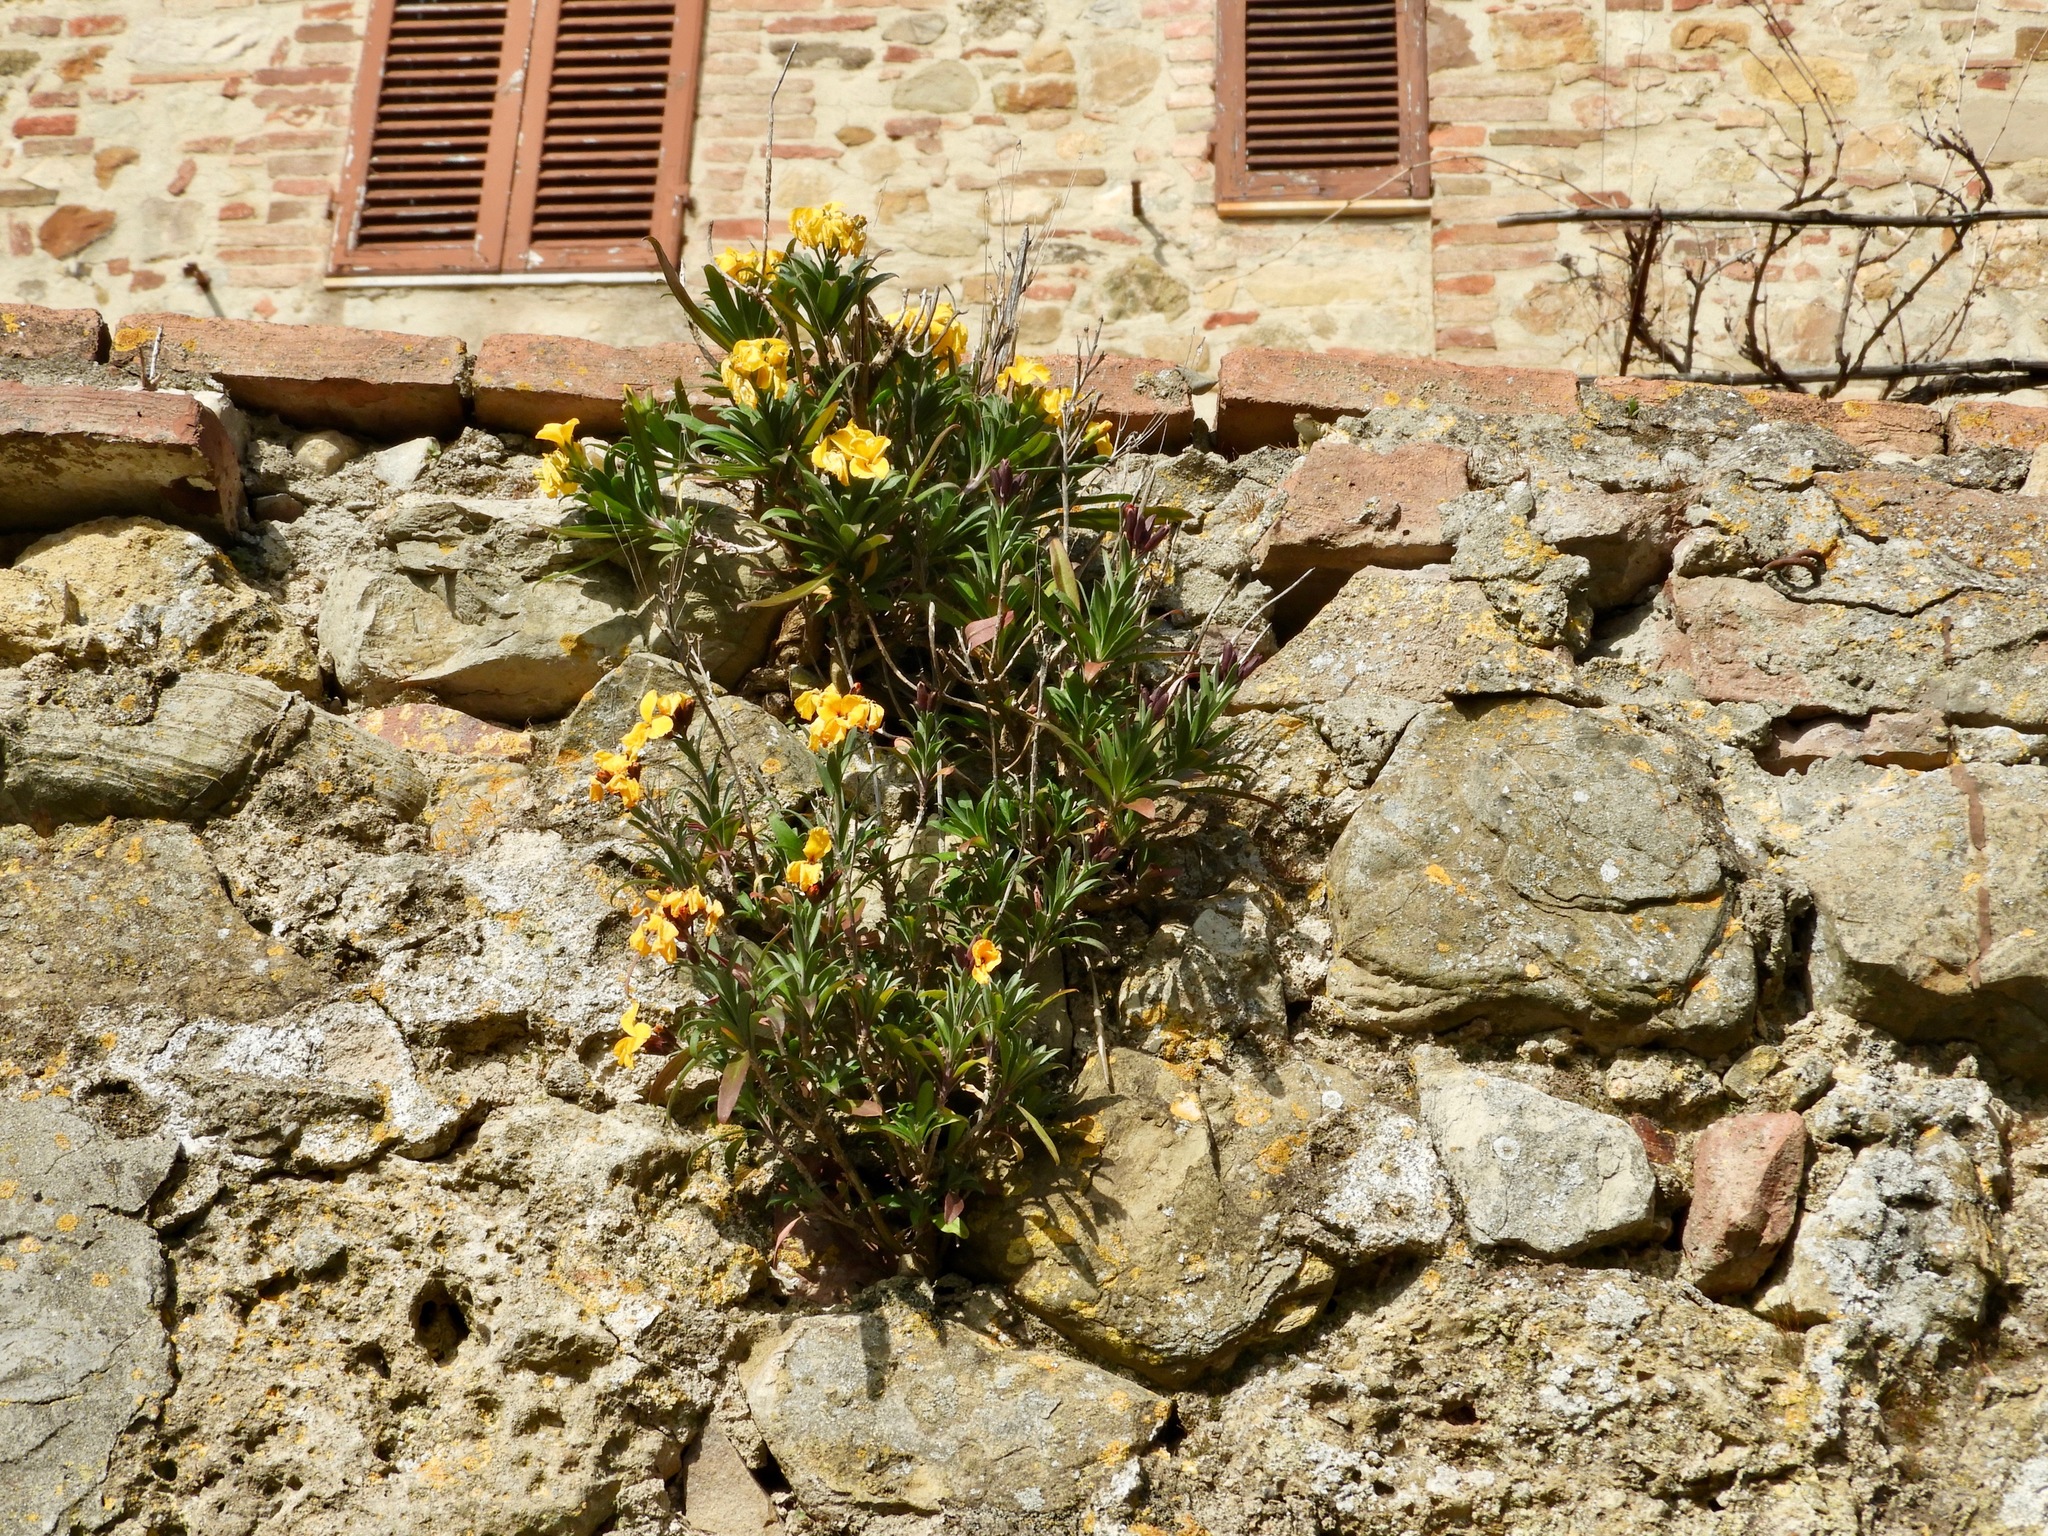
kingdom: Plantae
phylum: Tracheophyta
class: Magnoliopsida
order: Brassicales
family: Brassicaceae
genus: Erysimum
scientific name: Erysimum cheiri
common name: Wallflower
